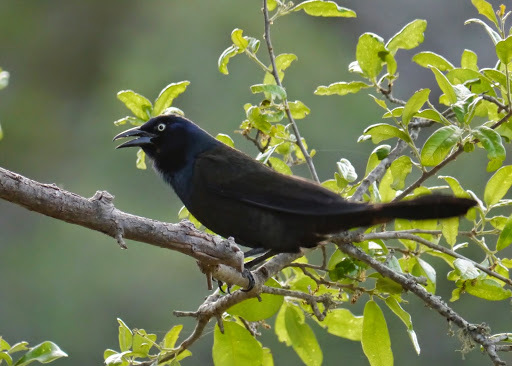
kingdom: Animalia
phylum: Chordata
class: Aves
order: Passeriformes
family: Icteridae
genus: Quiscalus
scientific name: Quiscalus quiscula
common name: Common grackle
